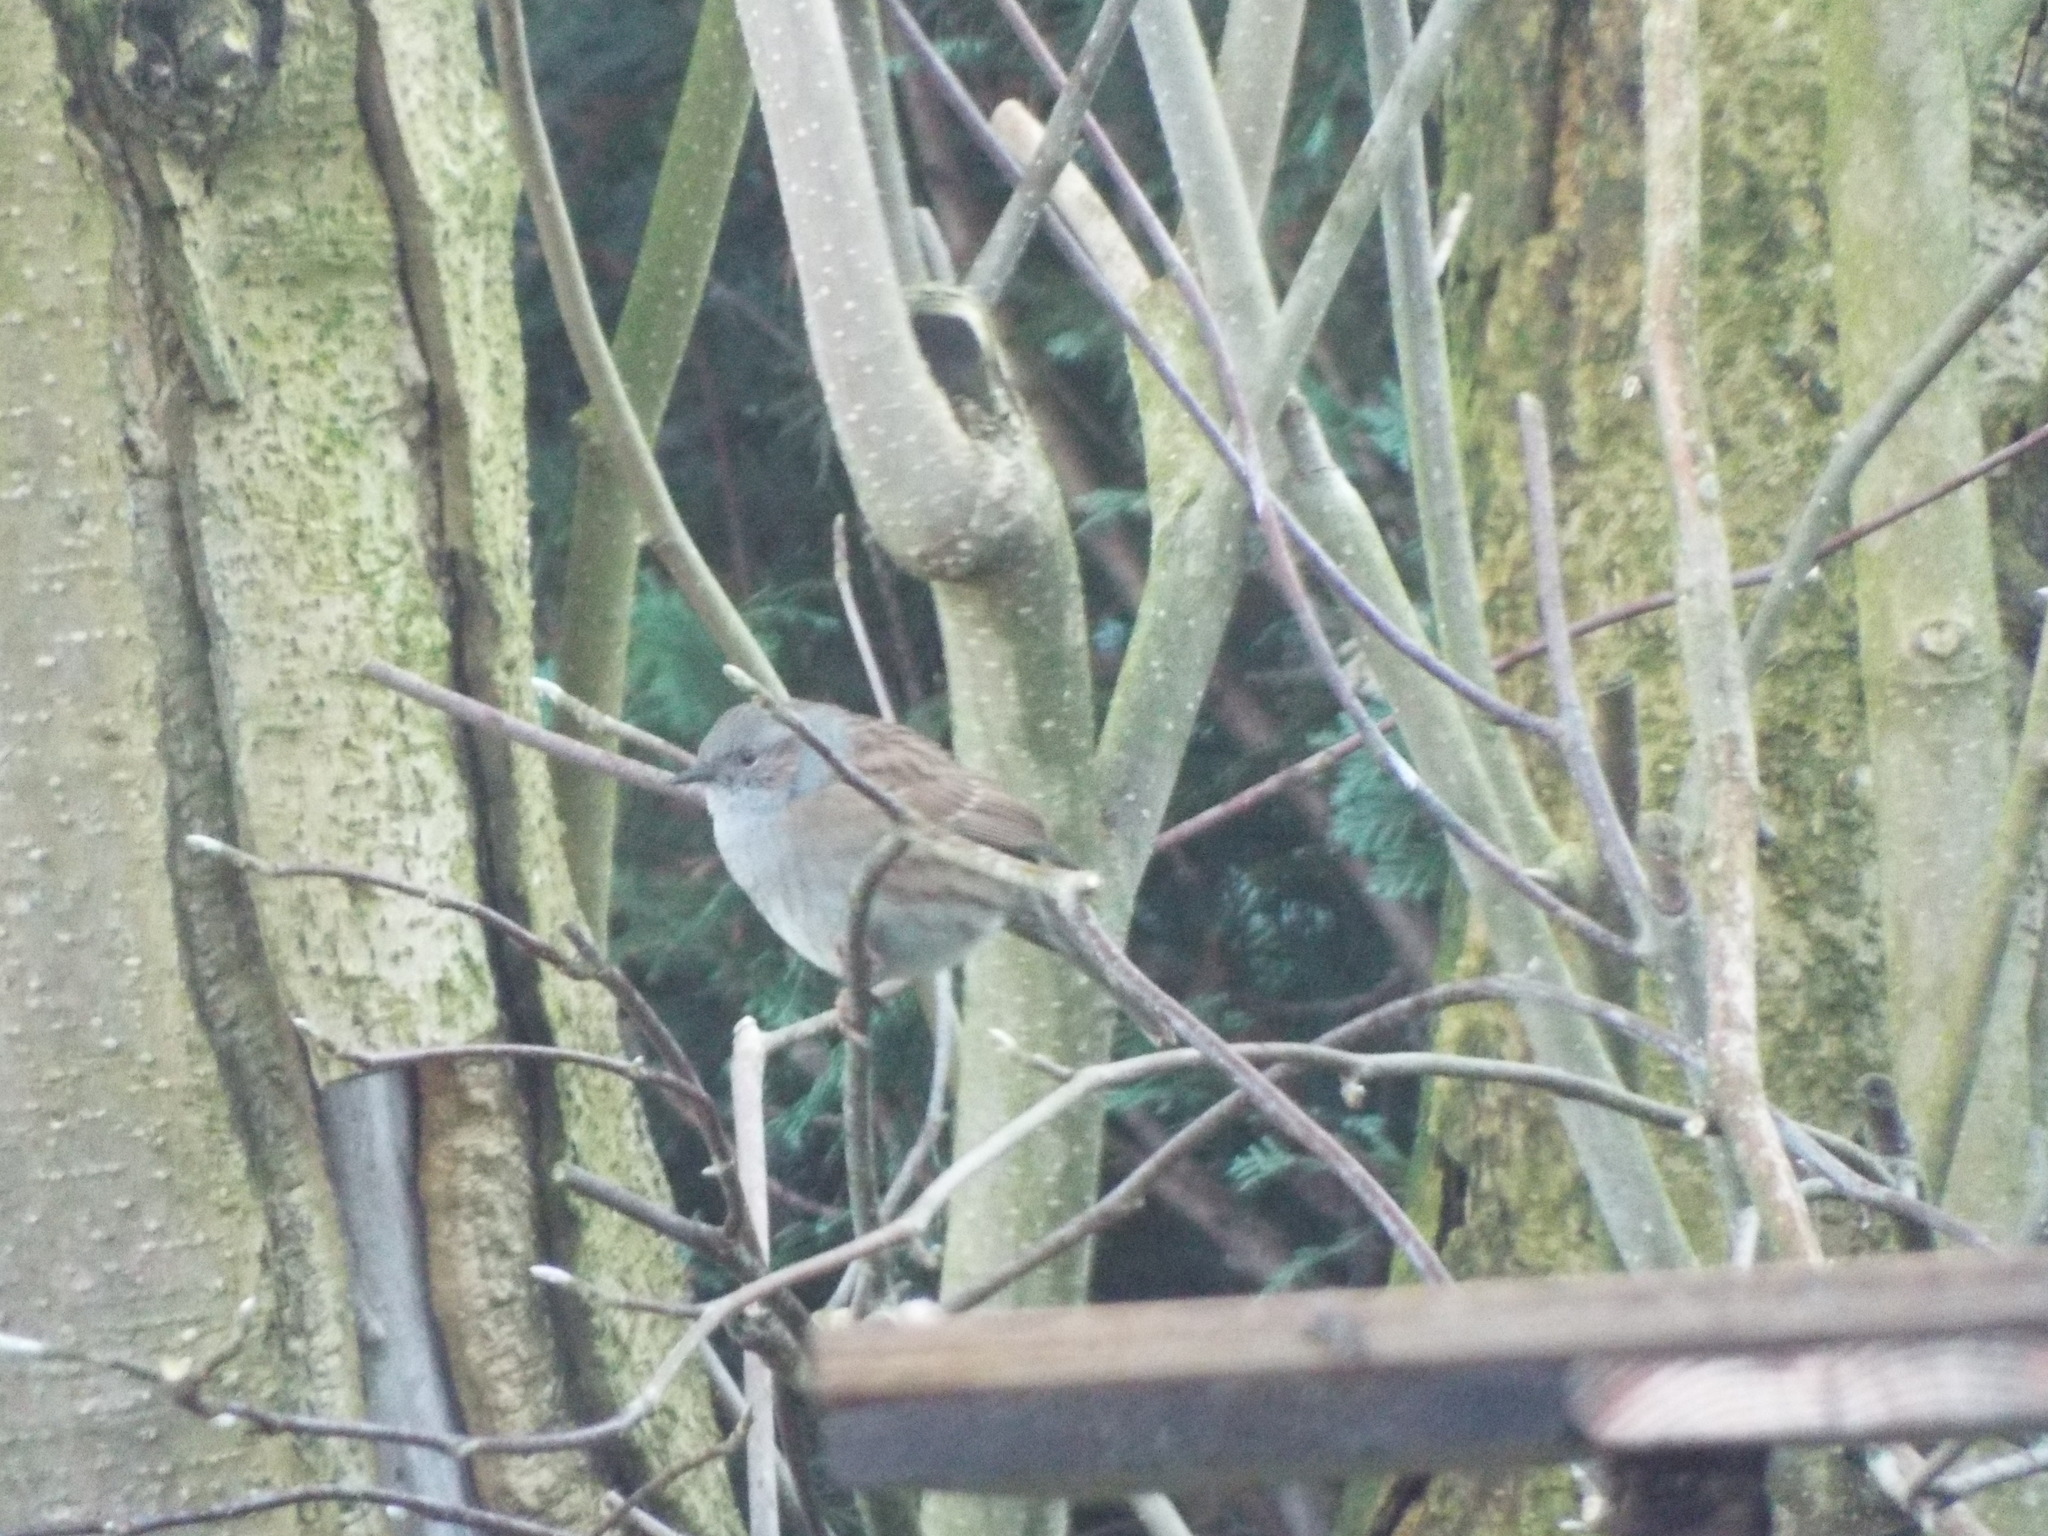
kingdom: Animalia
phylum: Chordata
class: Aves
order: Passeriformes
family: Prunellidae
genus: Prunella
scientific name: Prunella modularis
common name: Dunnock
